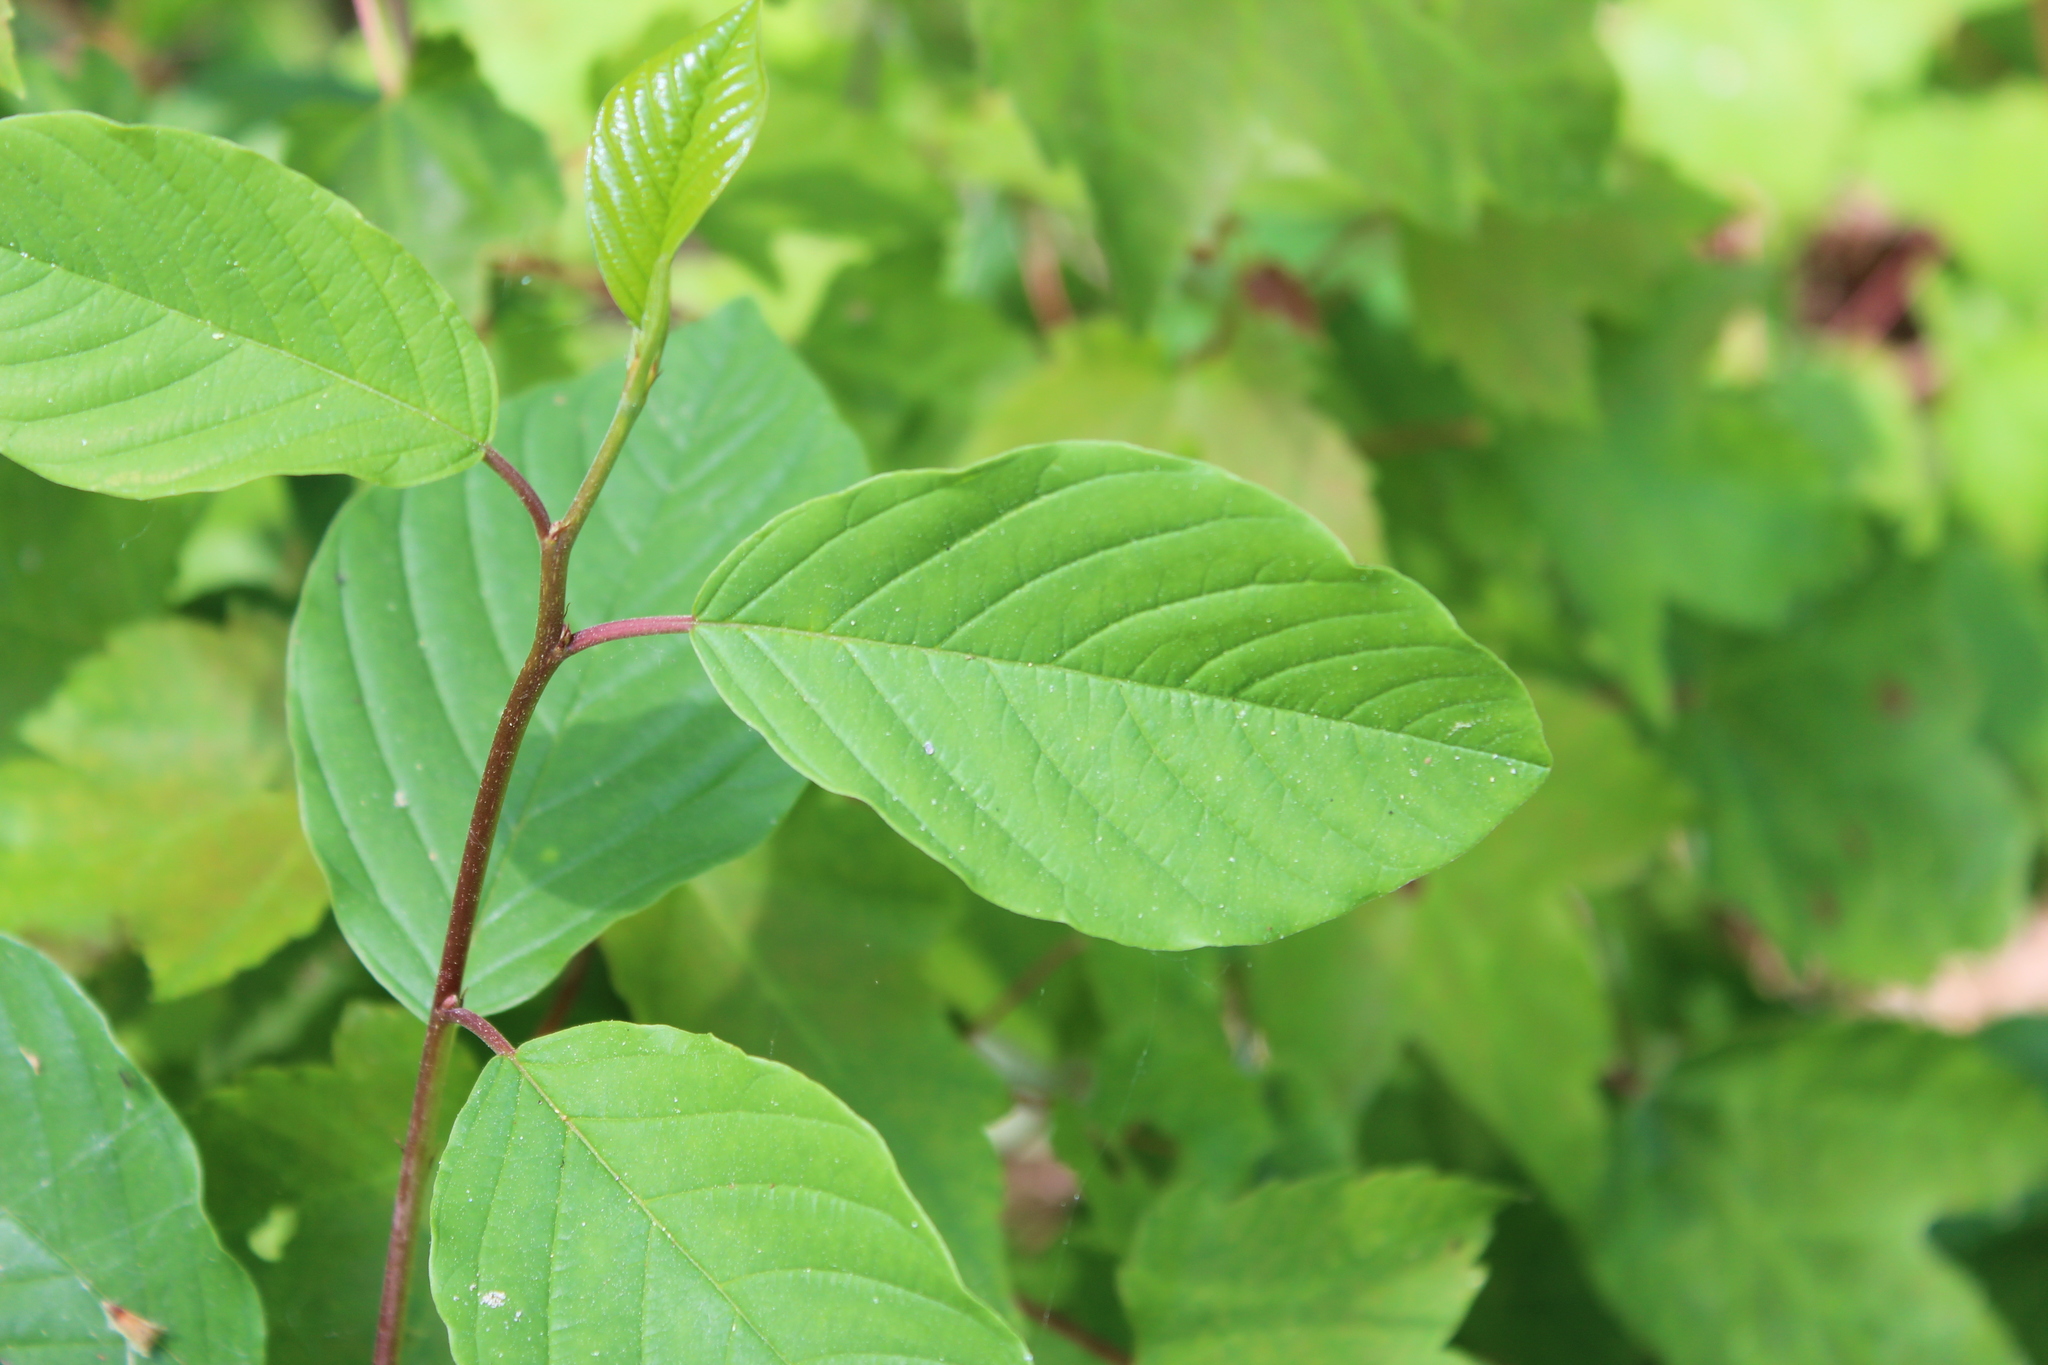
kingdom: Plantae
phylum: Tracheophyta
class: Magnoliopsida
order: Rosales
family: Rhamnaceae
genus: Frangula
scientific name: Frangula alnus
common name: Alder buckthorn
